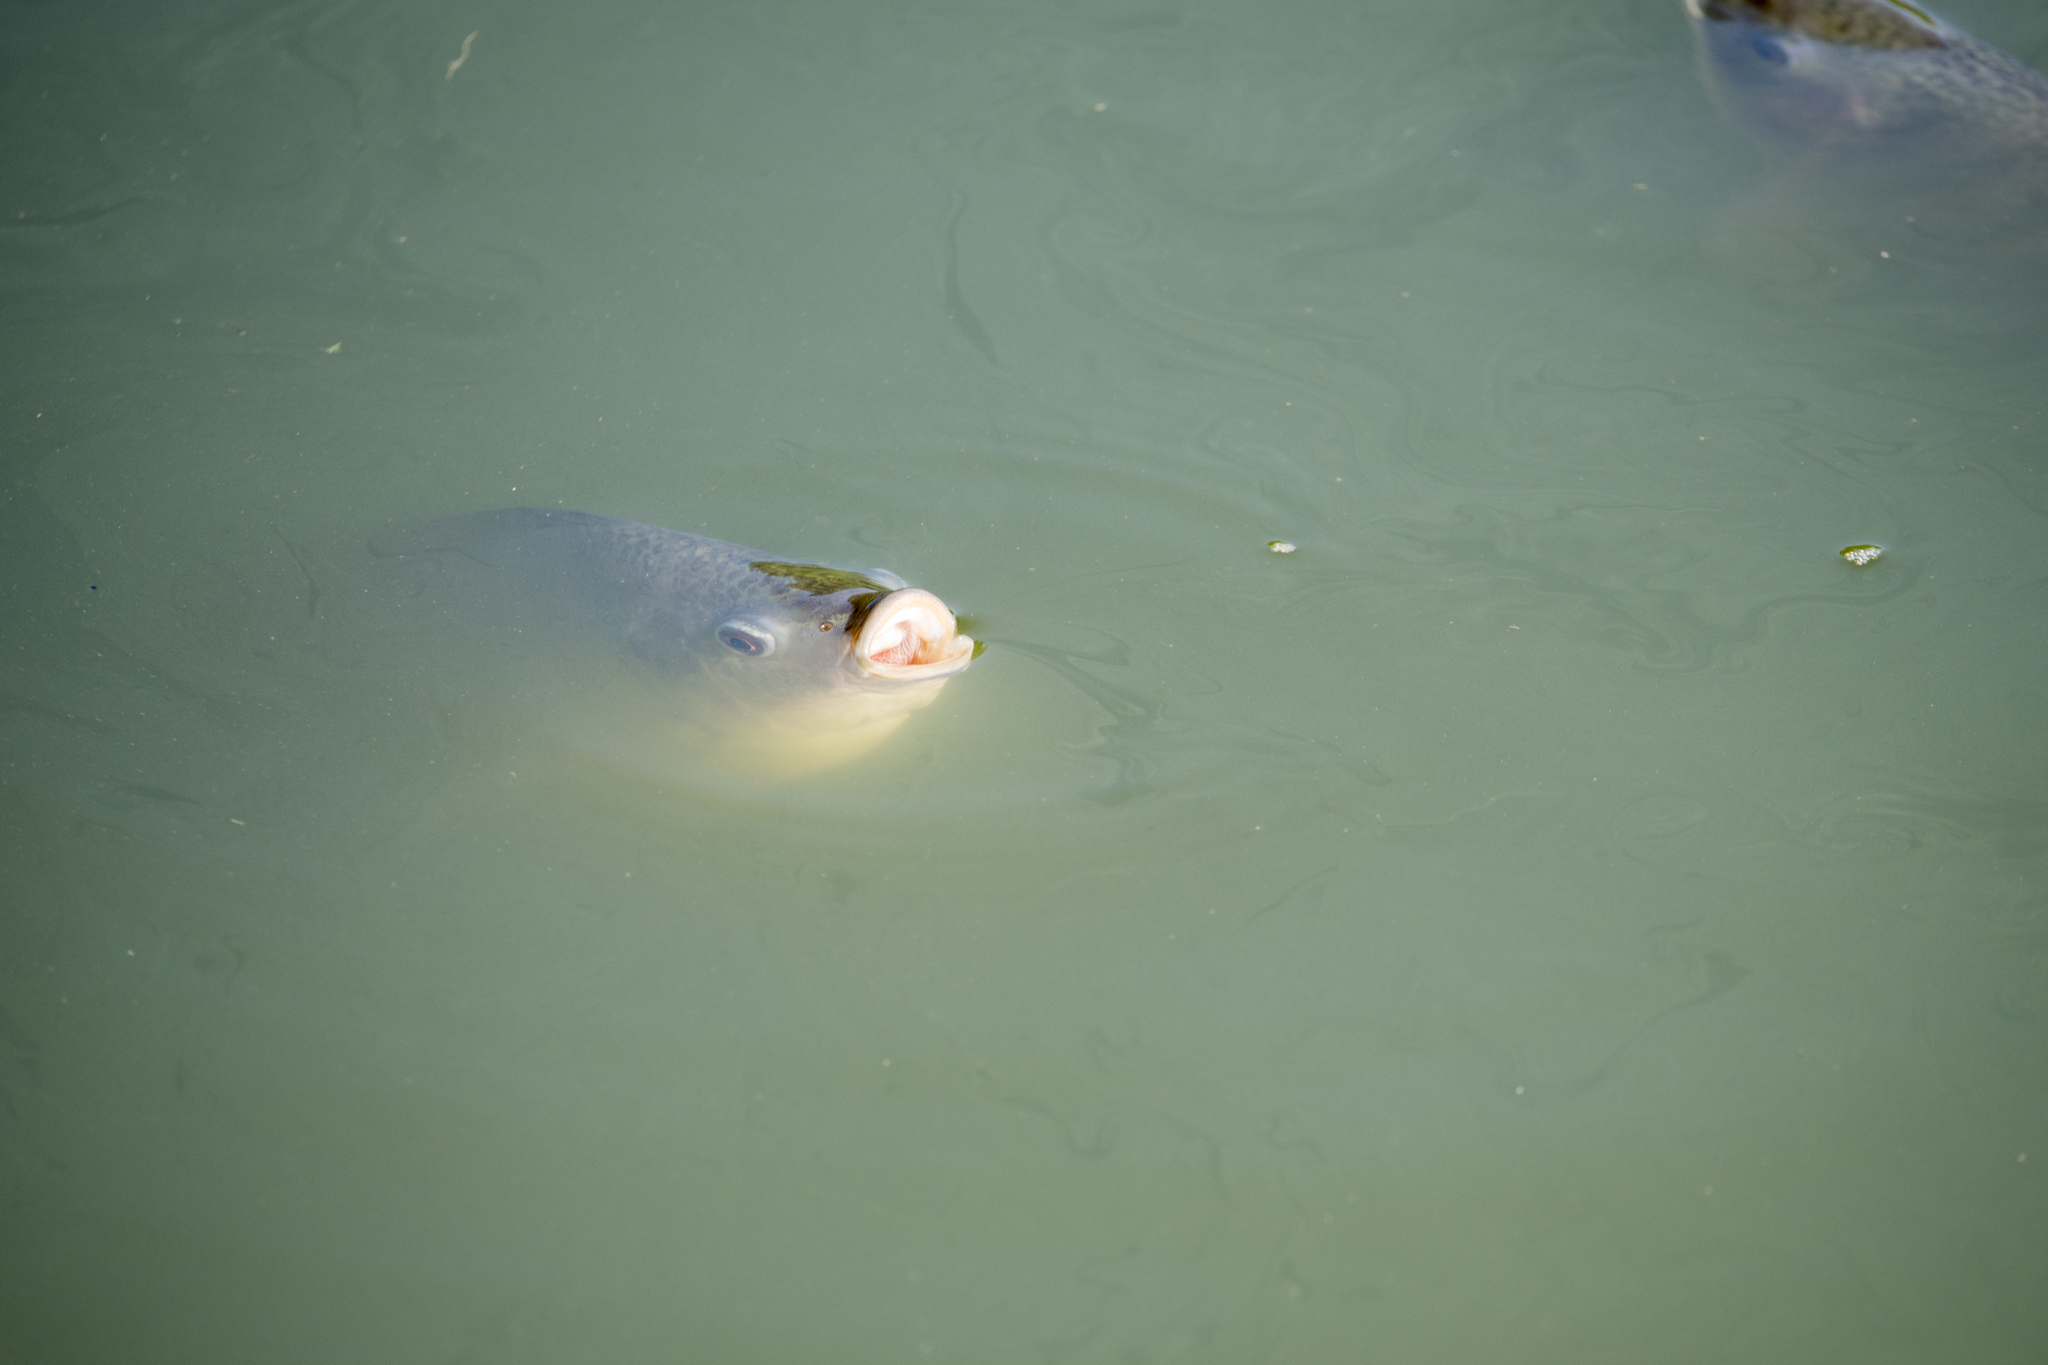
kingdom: Animalia
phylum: Chordata
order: Perciformes
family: Cichlidae
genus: Oreochromis
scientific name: Oreochromis mossambicus
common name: Mozambique tilapia
